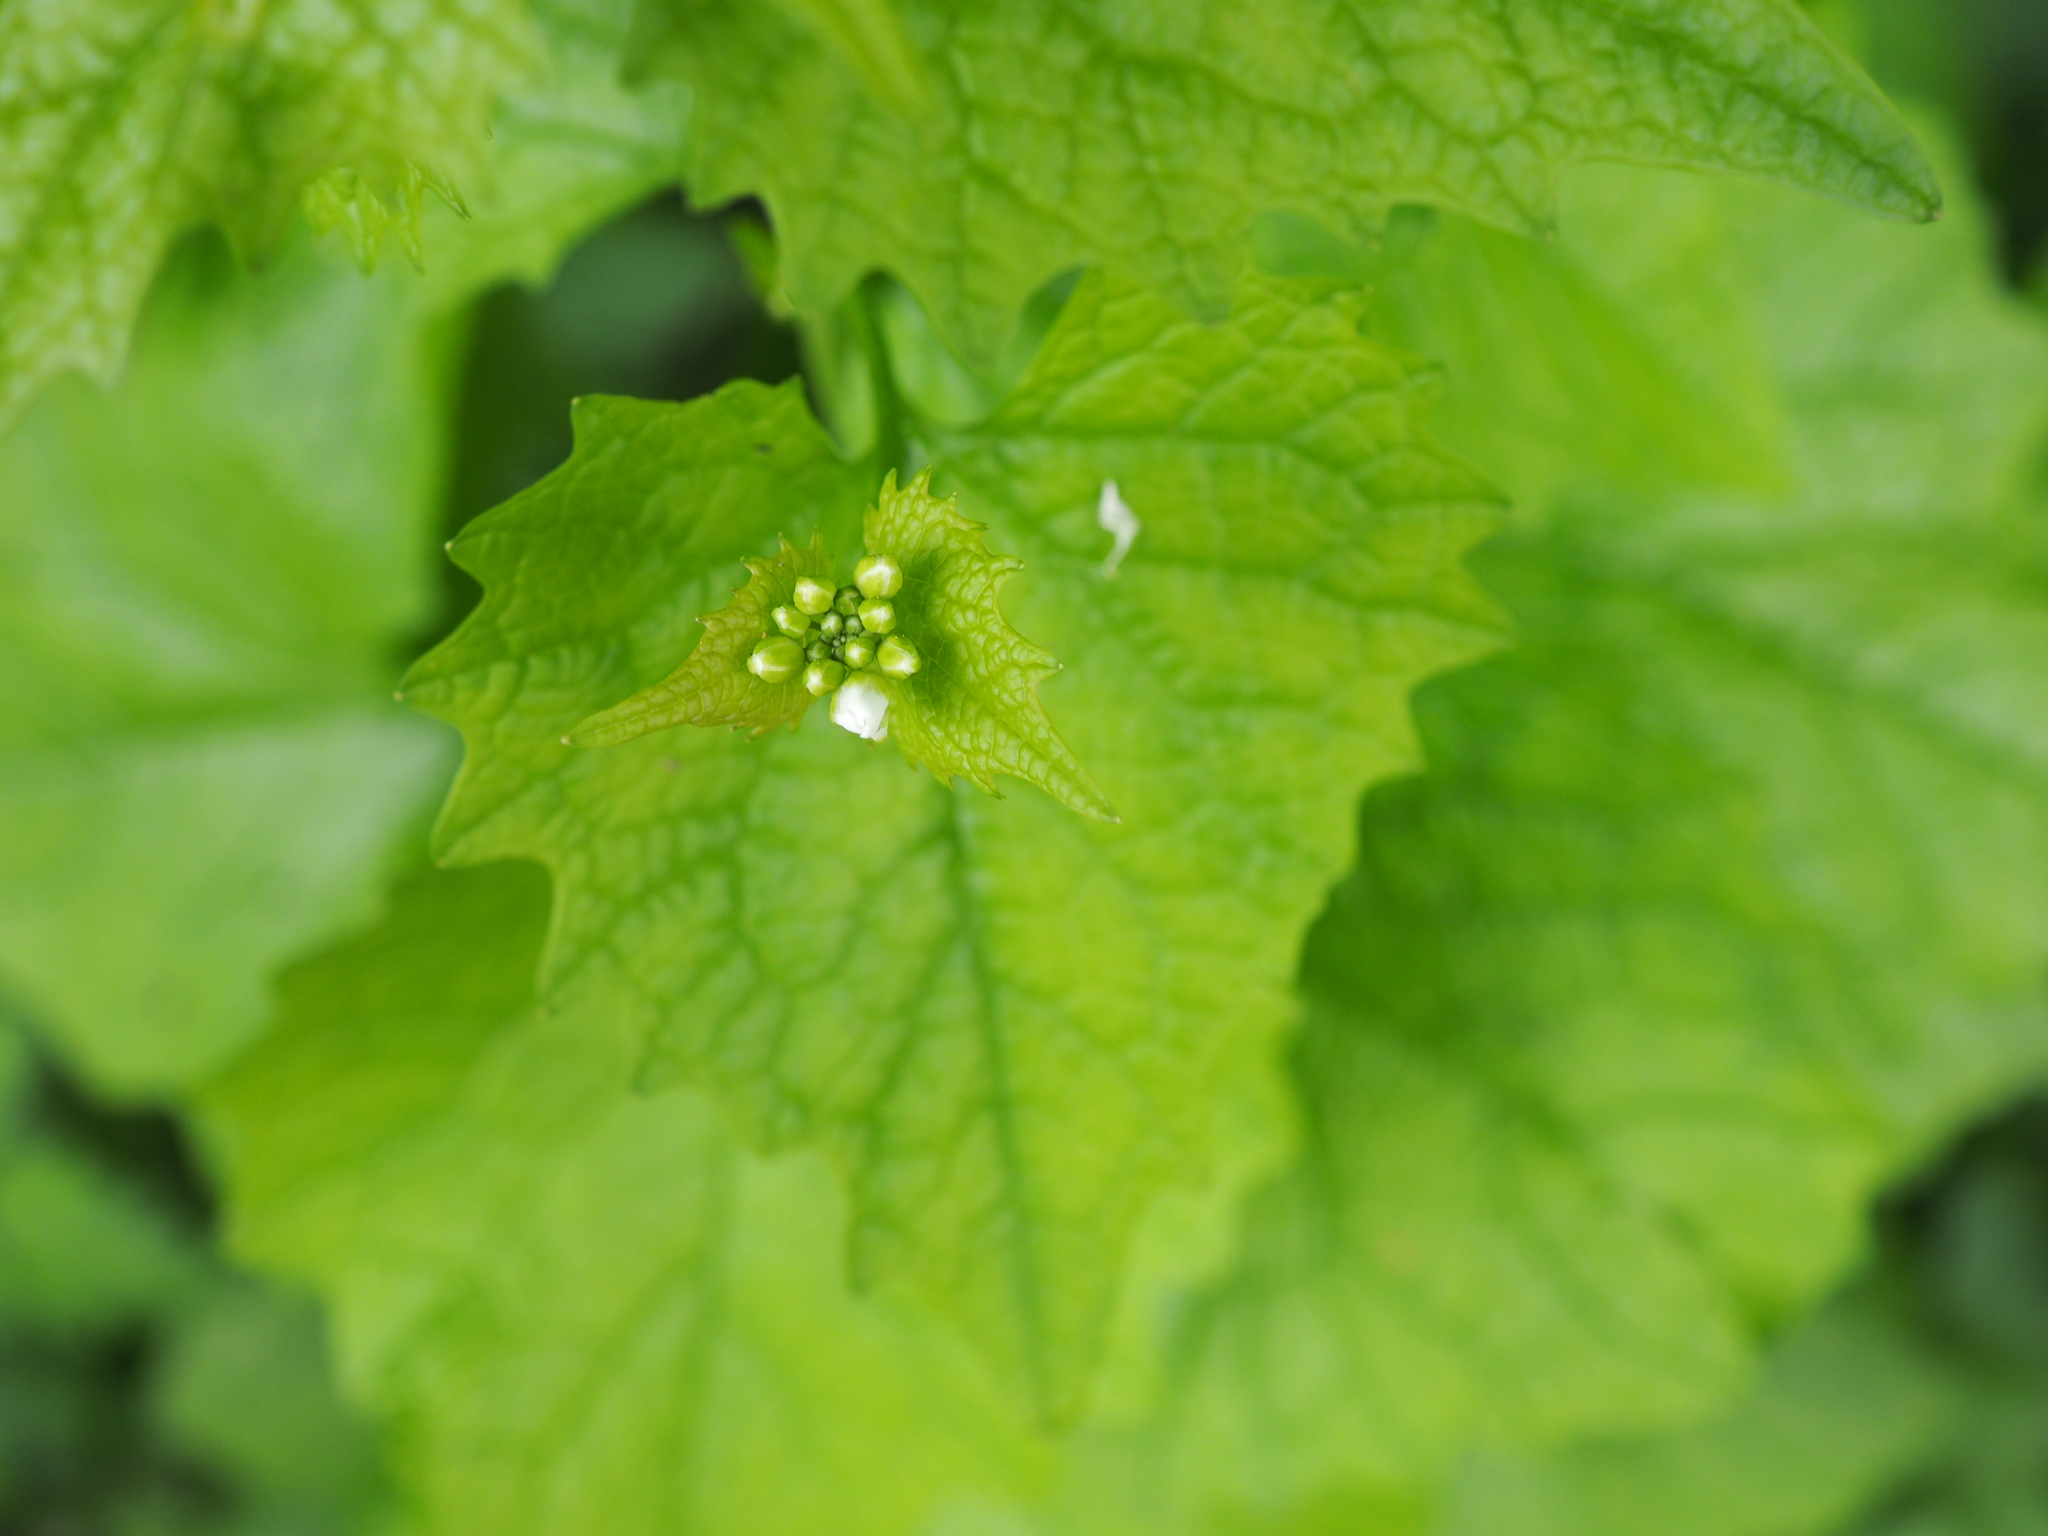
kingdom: Plantae
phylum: Tracheophyta
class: Magnoliopsida
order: Brassicales
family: Brassicaceae
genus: Alliaria
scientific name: Alliaria petiolata
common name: Garlic mustard
